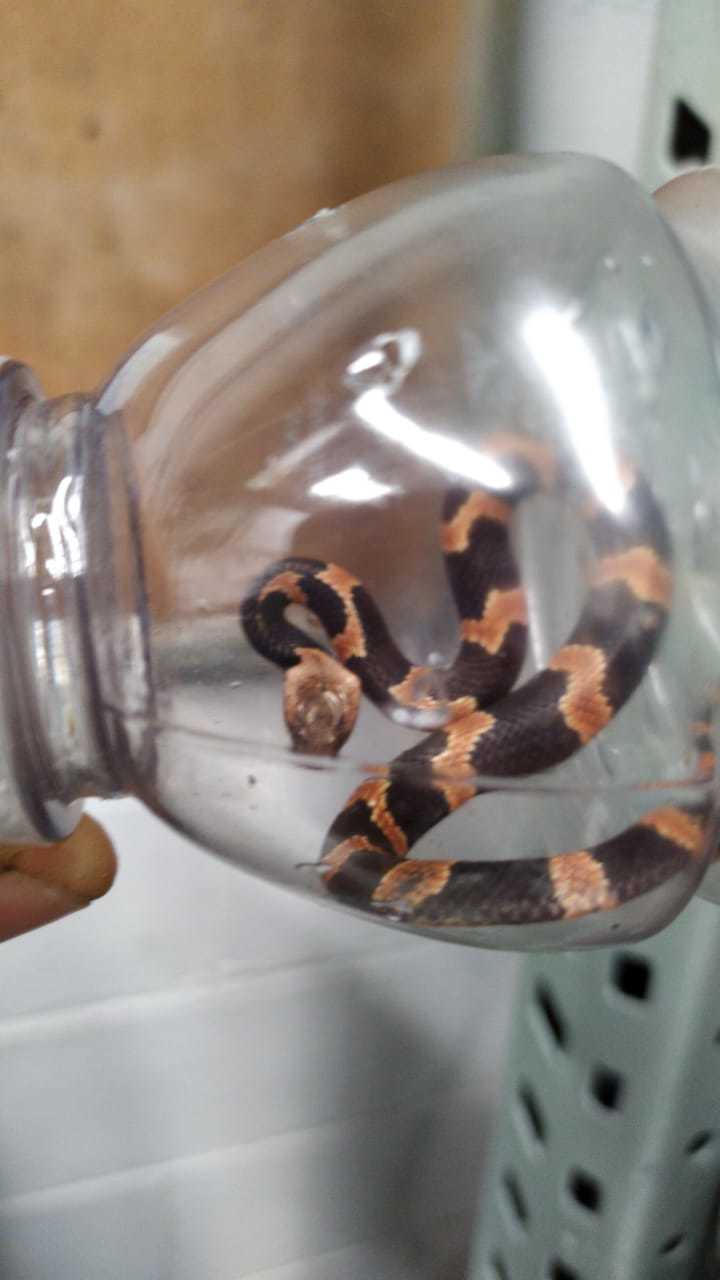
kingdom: Animalia
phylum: Chordata
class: Squamata
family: Colubridae
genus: Leptodeira
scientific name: Leptodeira frenata
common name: Rainforest cat-eyed snake
